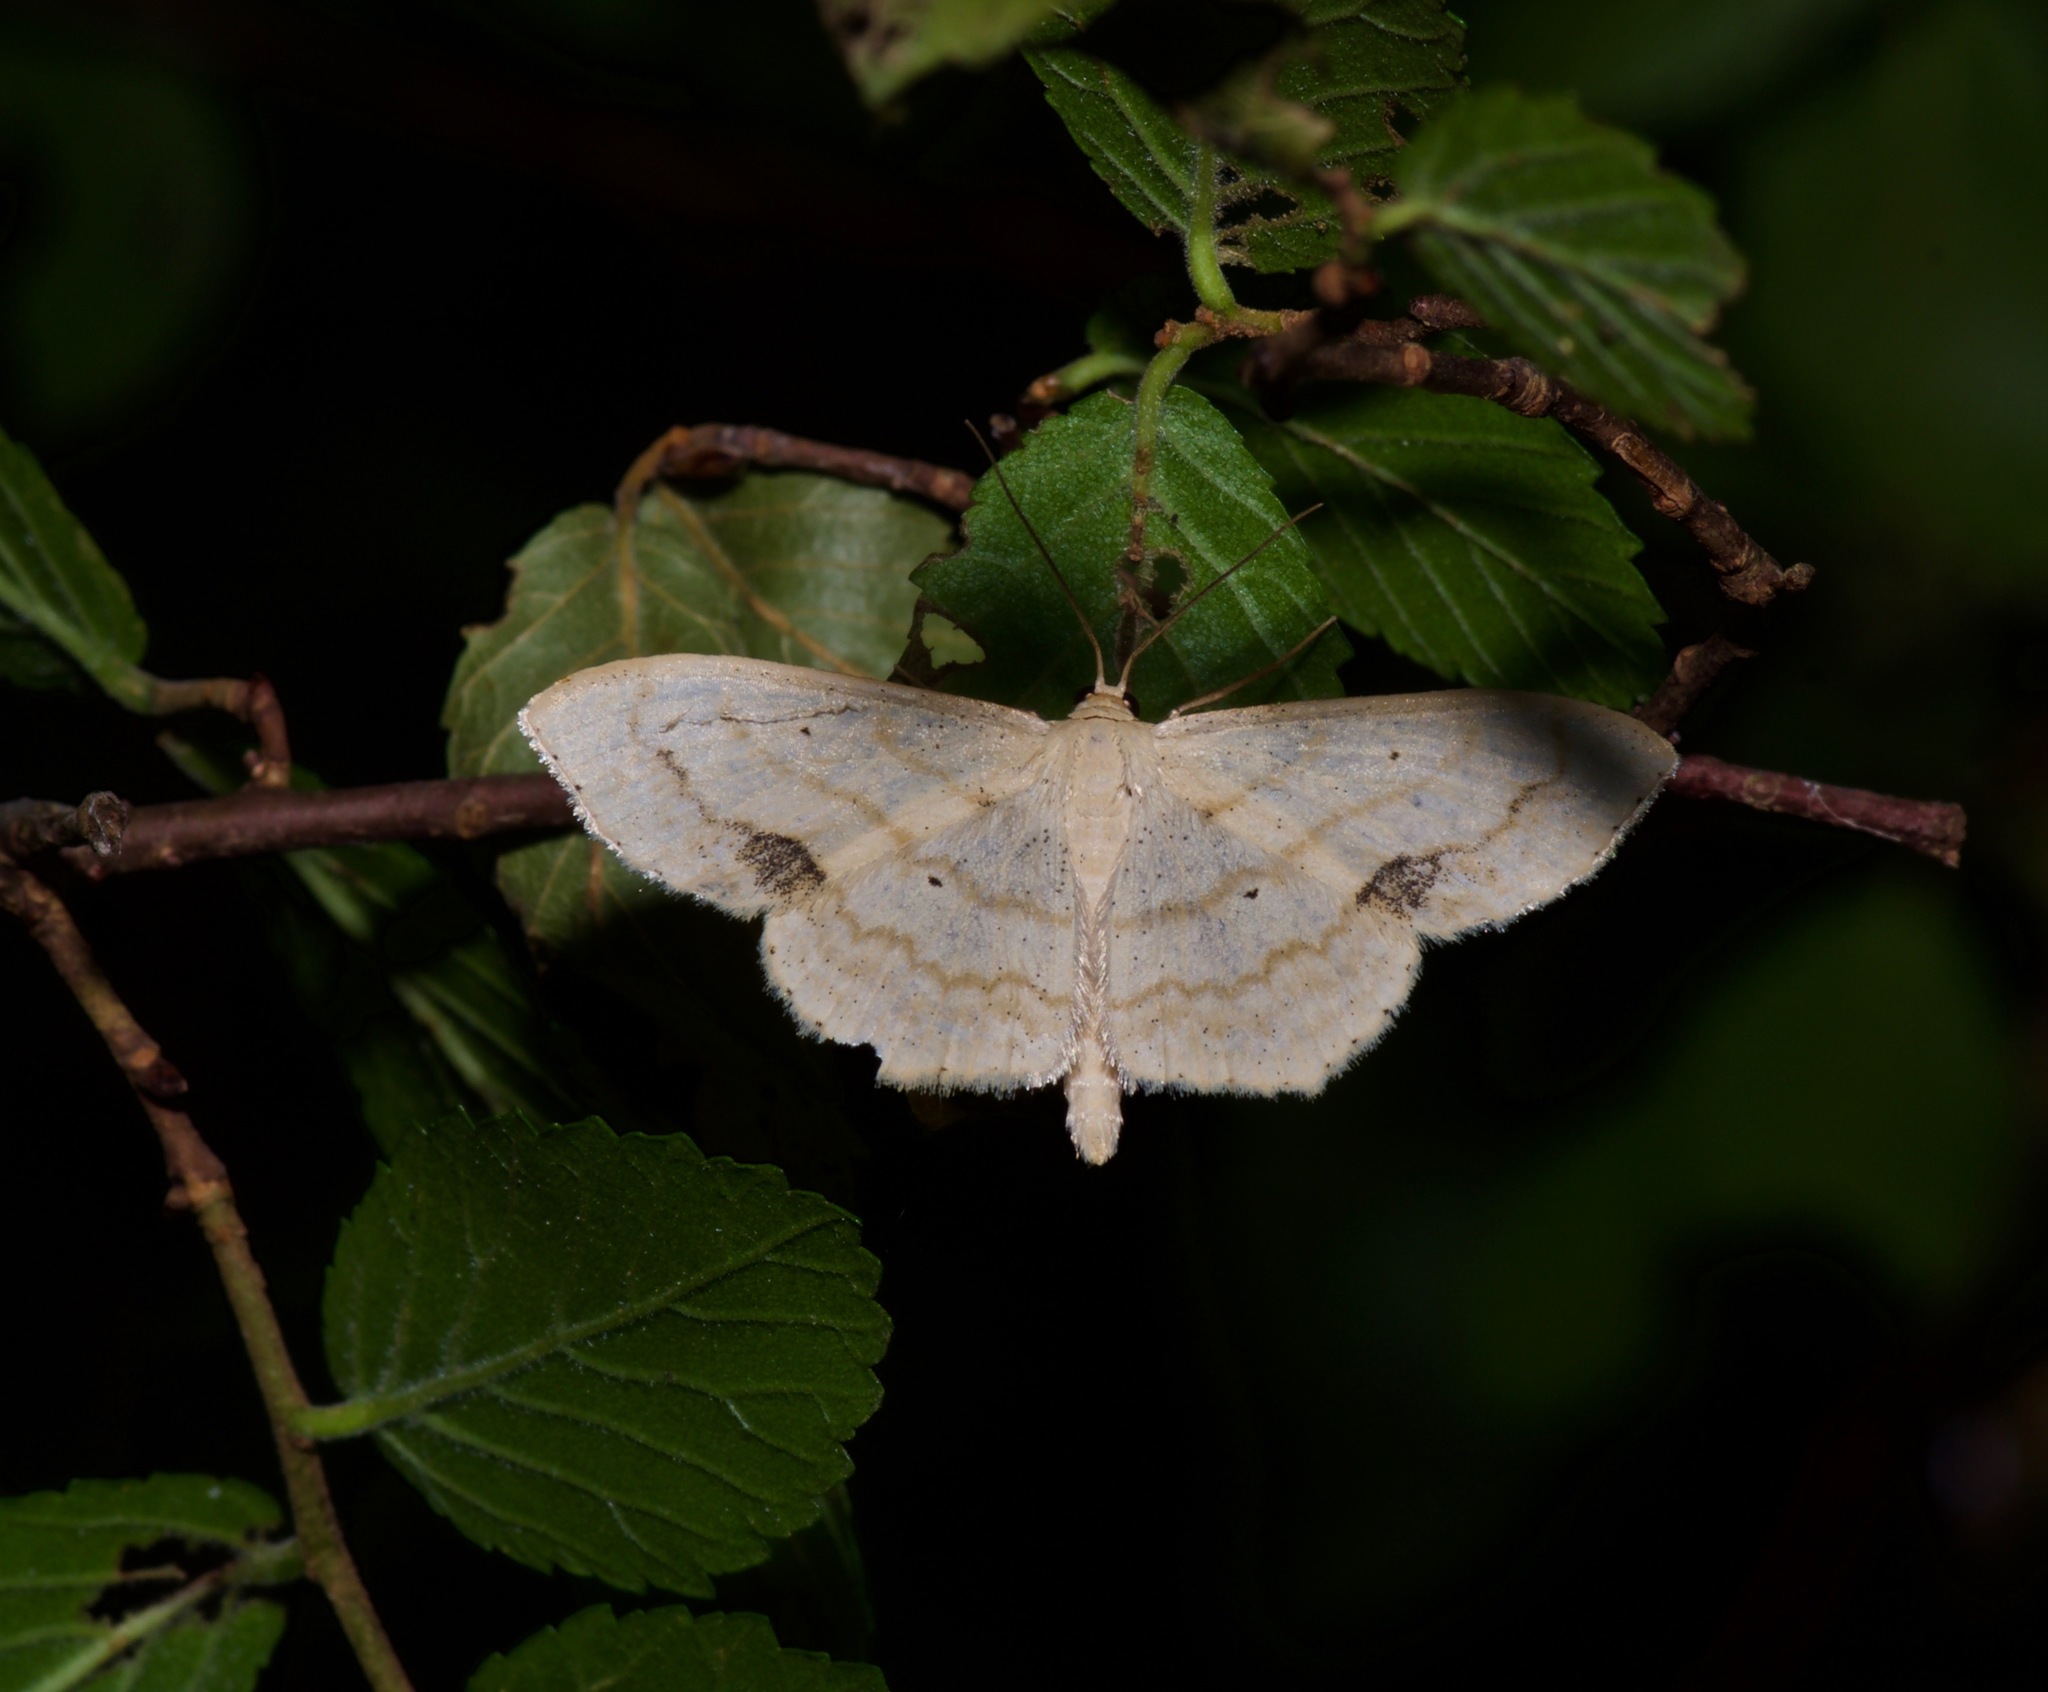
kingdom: Animalia
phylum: Arthropoda
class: Insecta
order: Lepidoptera
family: Geometridae
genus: Scopula
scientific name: Scopula limboundata
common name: Large lace border
